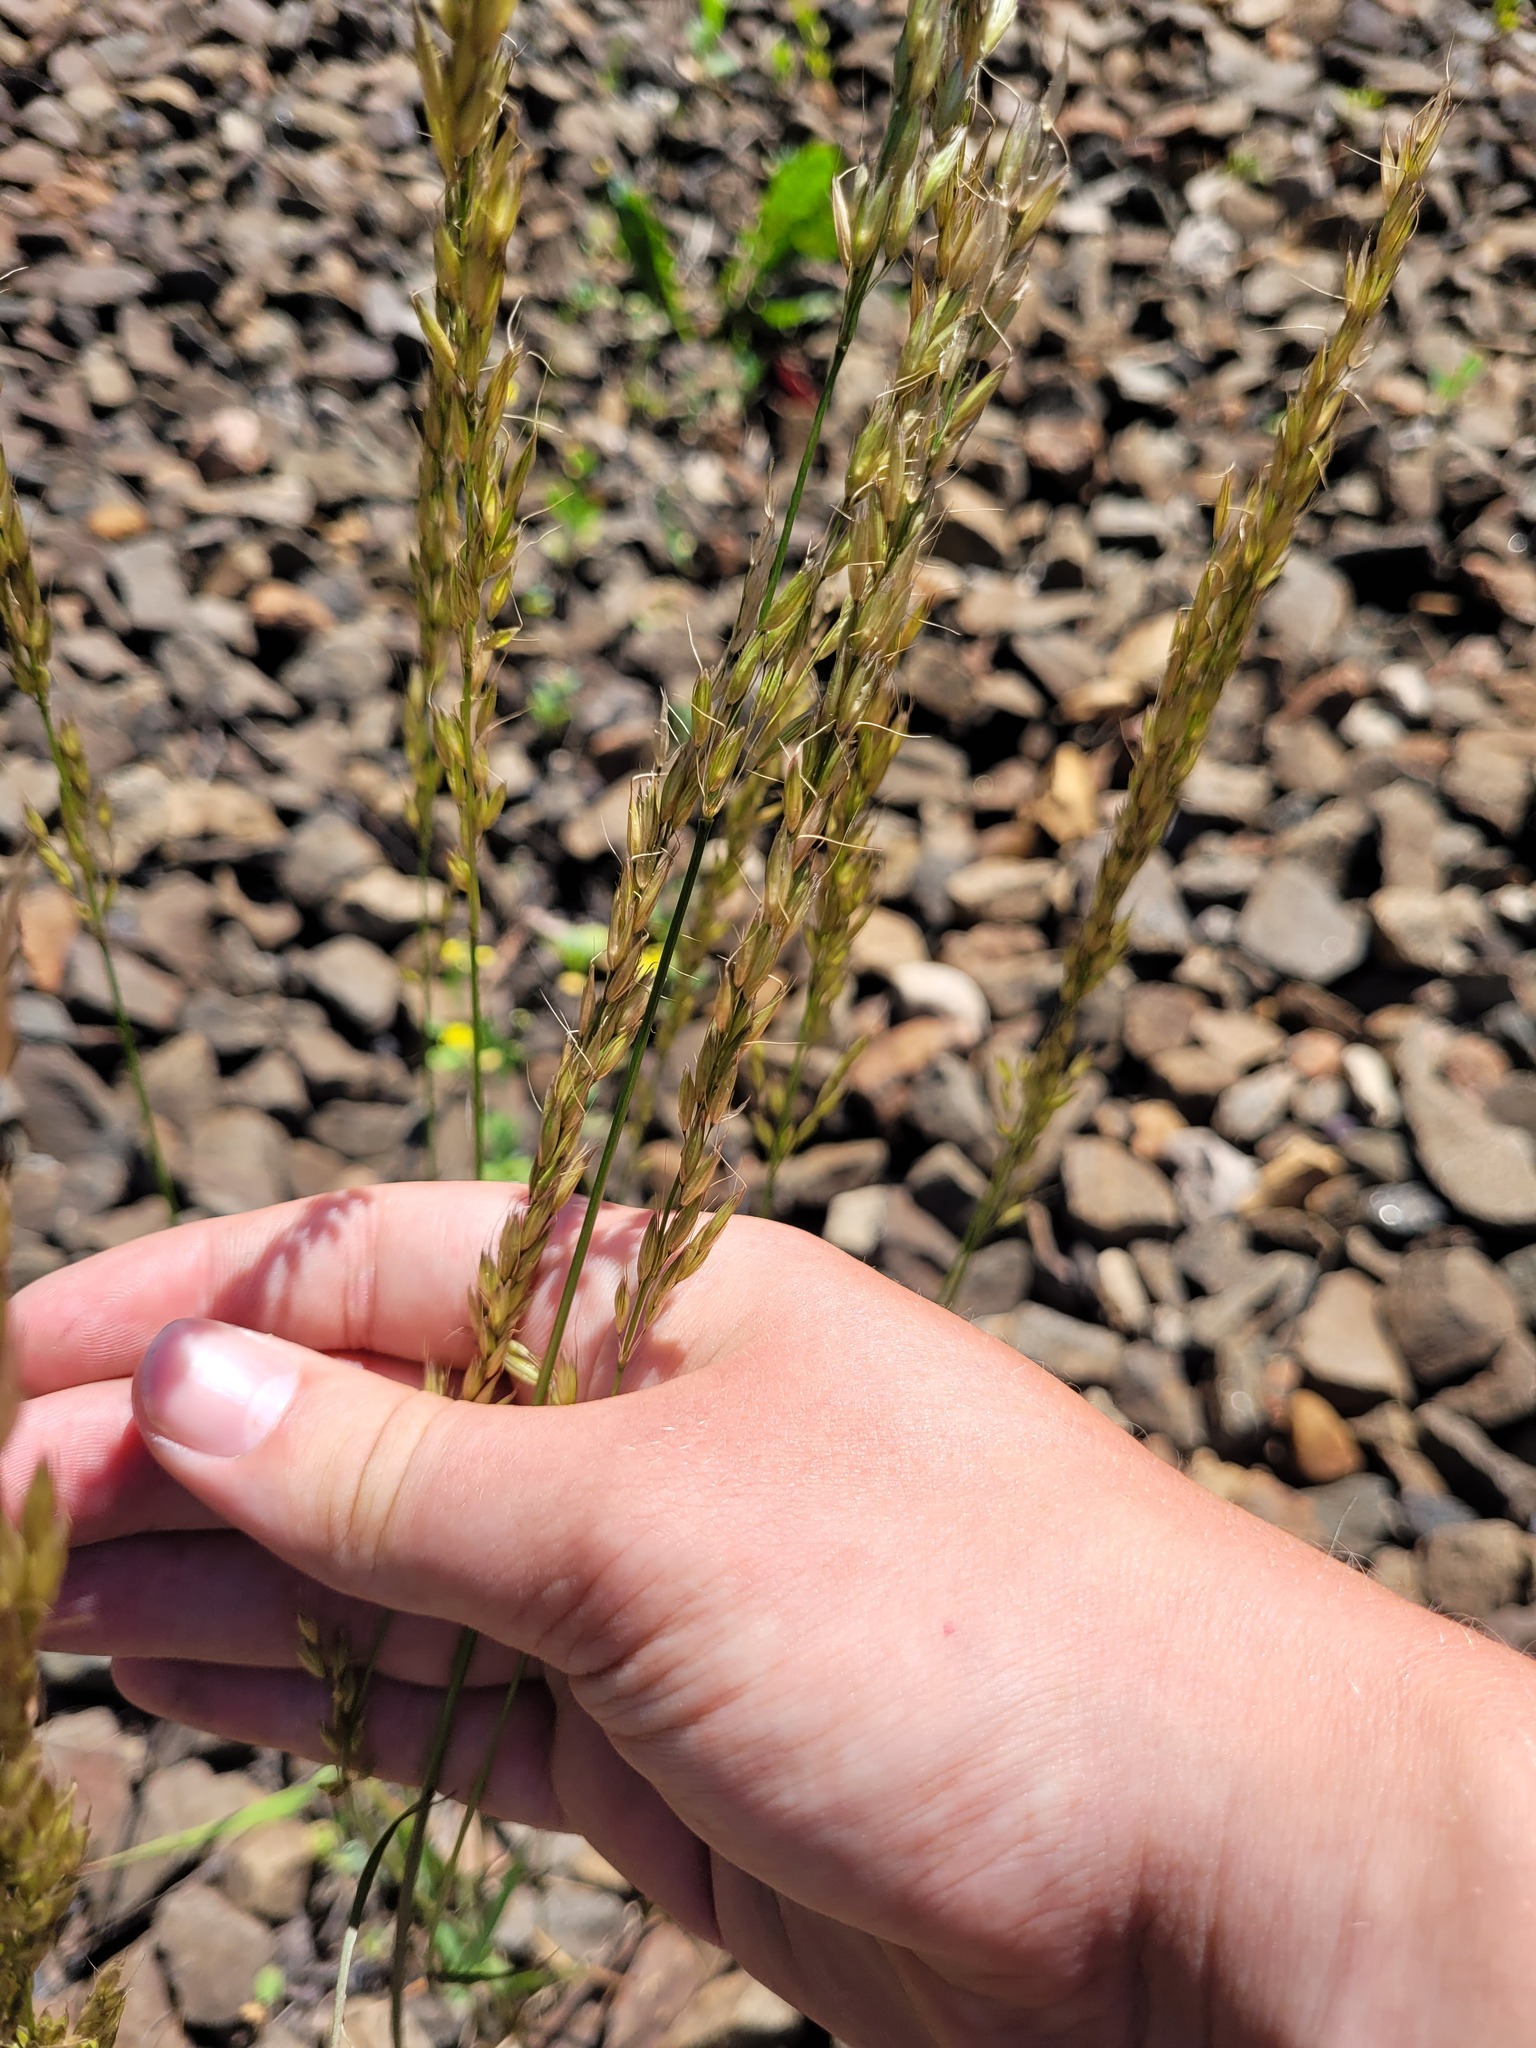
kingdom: Plantae
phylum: Tracheophyta
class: Liliopsida
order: Poales
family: Poaceae
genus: Arrhenatherum
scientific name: Arrhenatherum elatius
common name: Tall oatgrass
